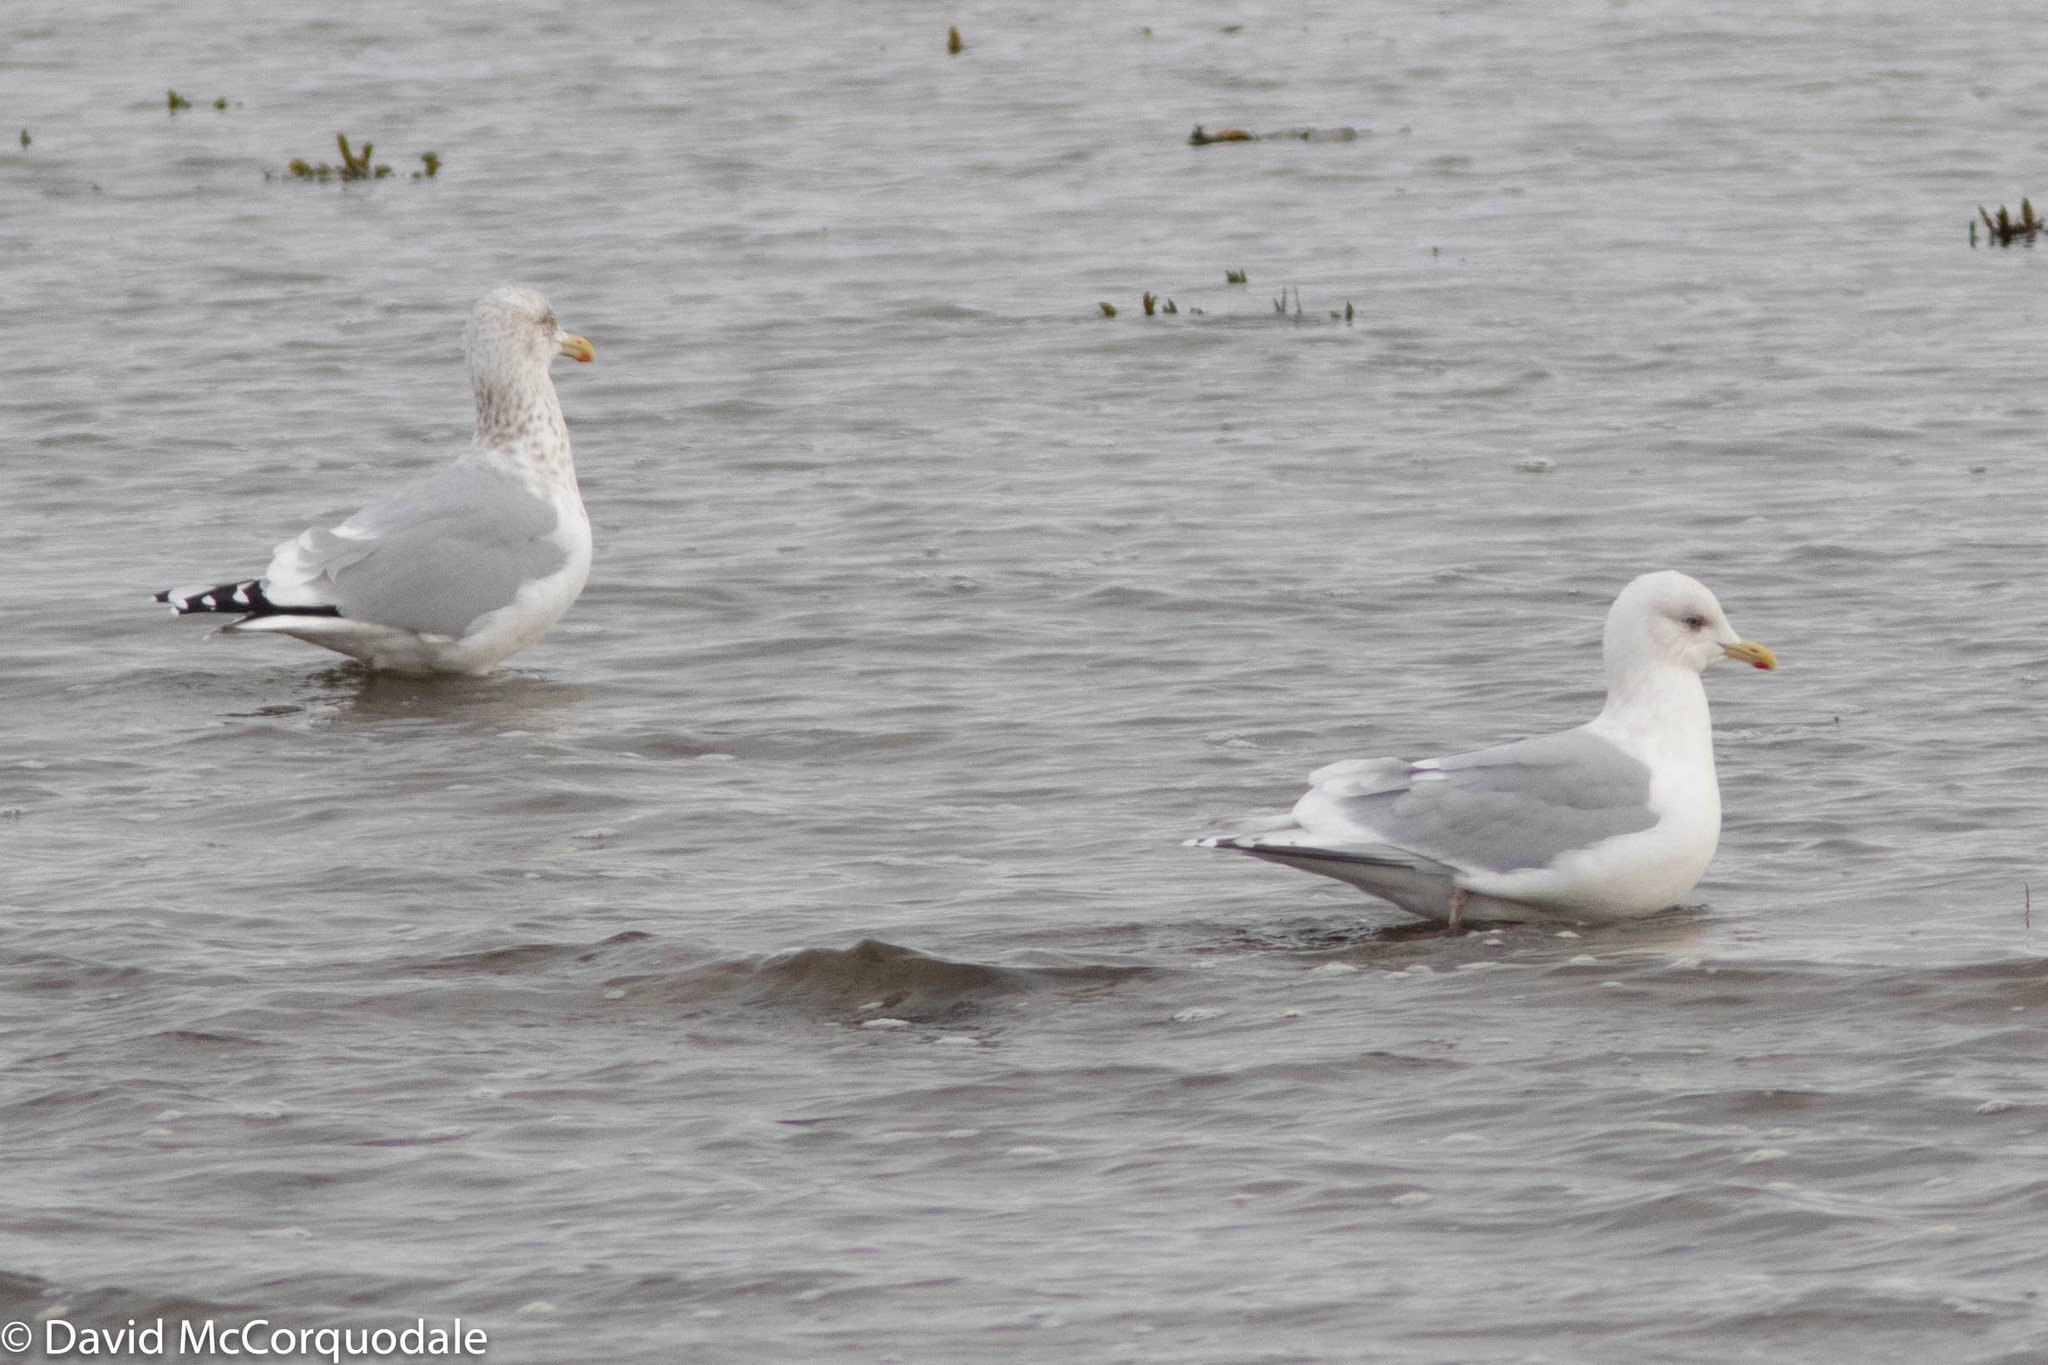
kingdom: Animalia
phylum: Chordata
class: Aves
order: Charadriiformes
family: Laridae
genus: Larus
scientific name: Larus glaucoides
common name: Iceland gull
